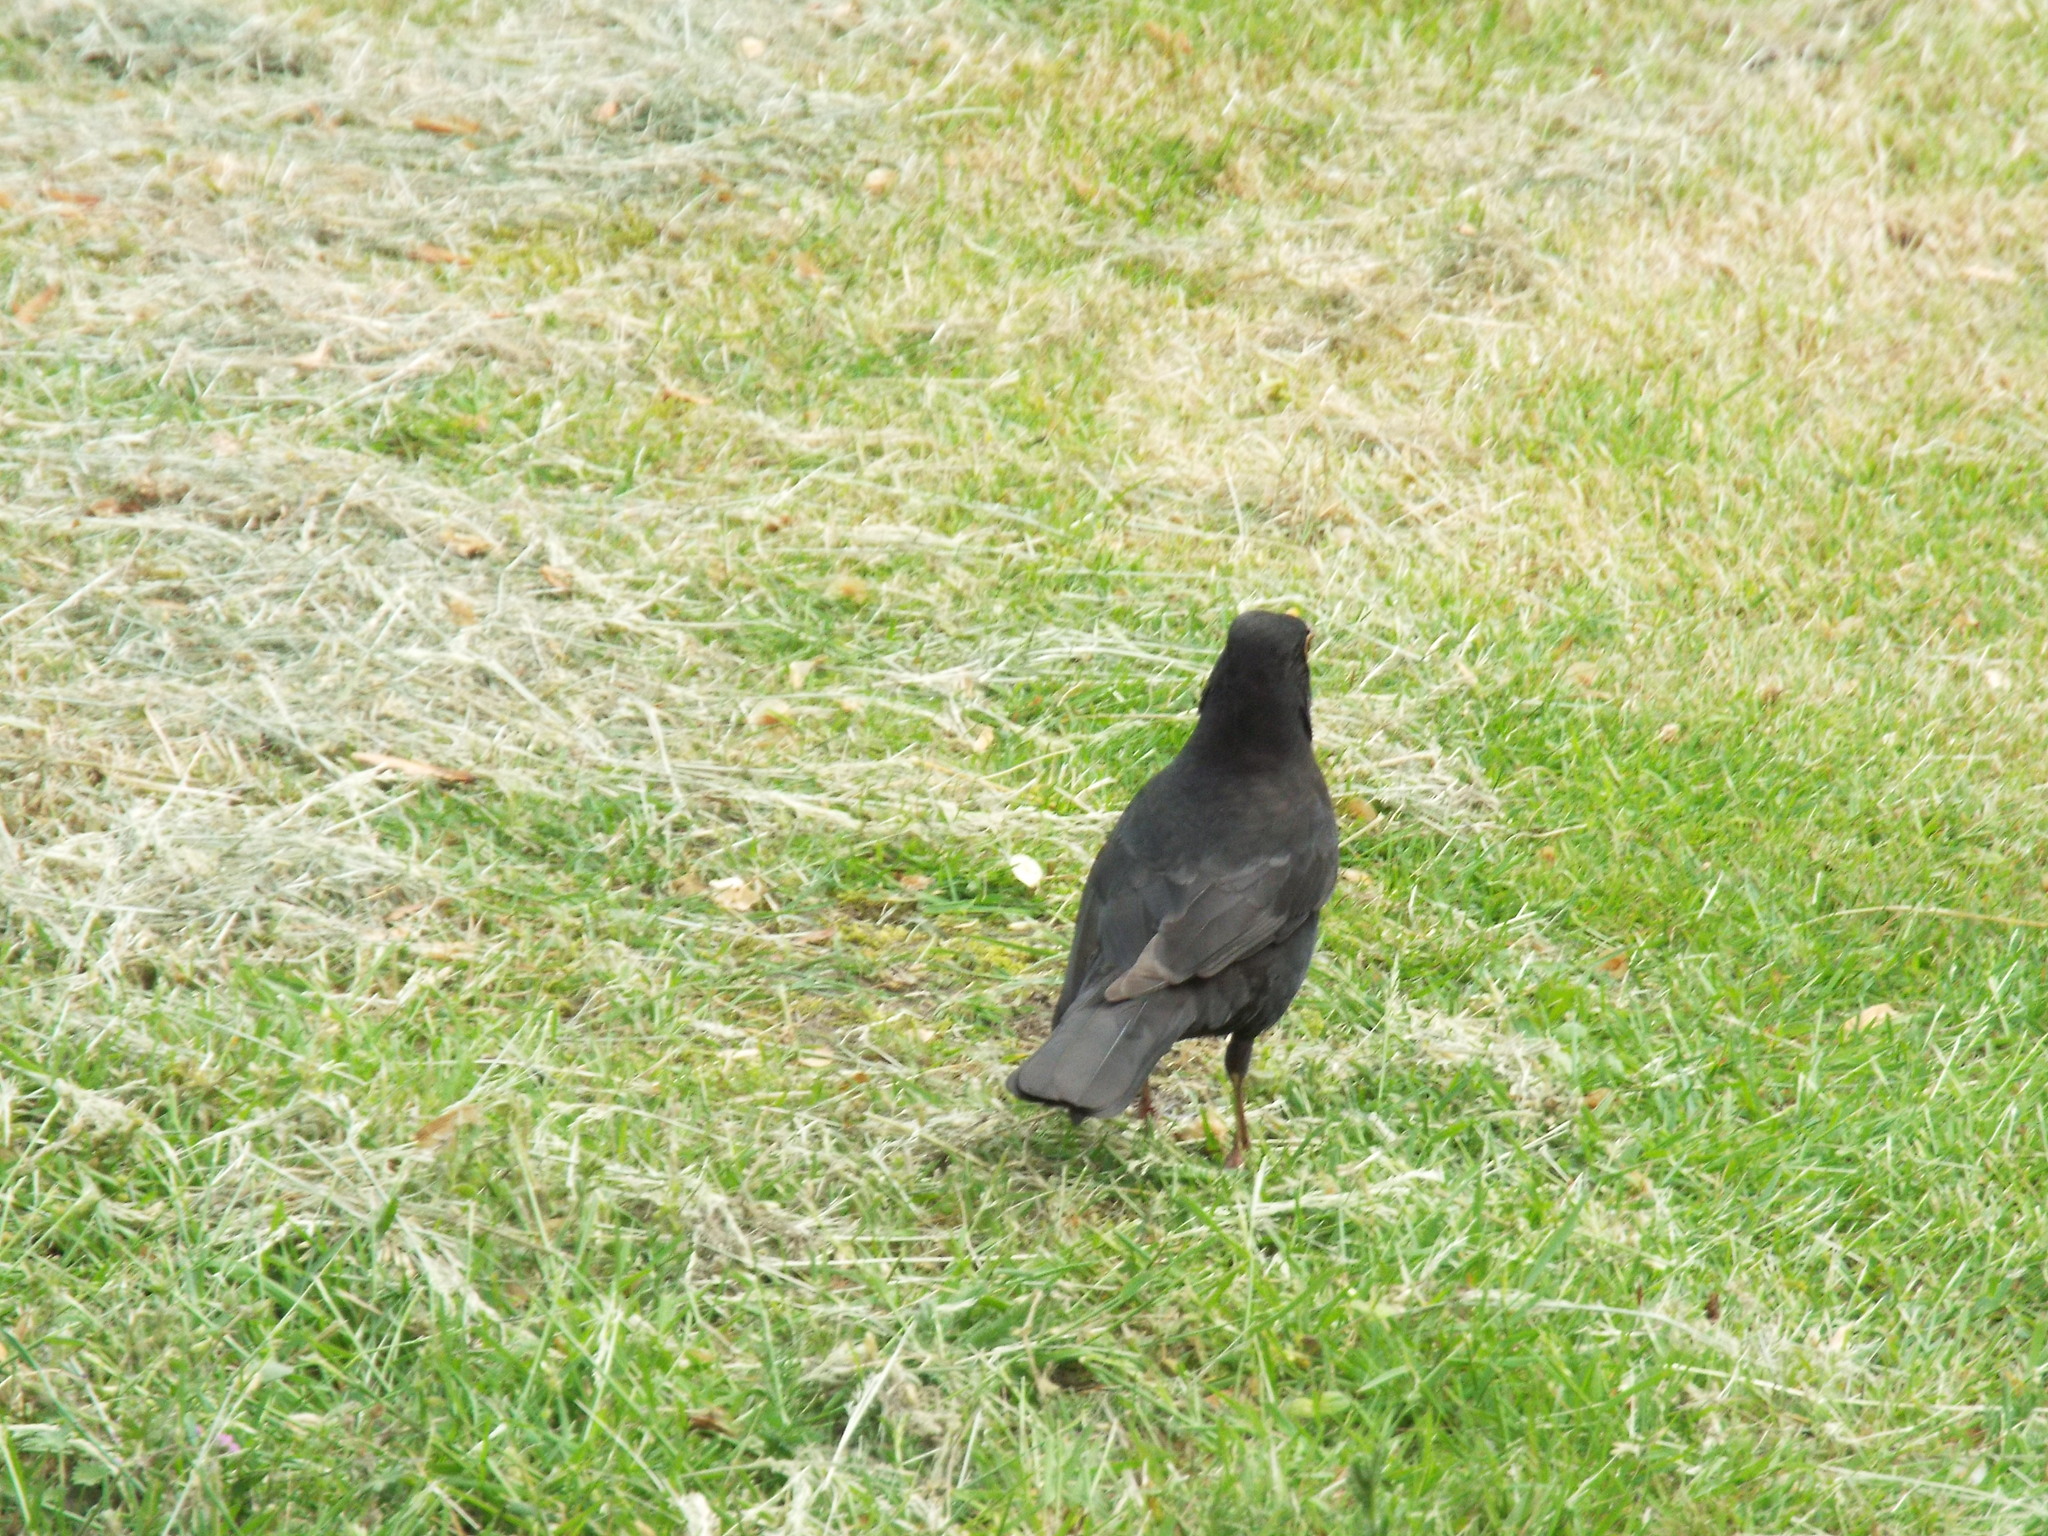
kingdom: Animalia
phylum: Chordata
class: Aves
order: Passeriformes
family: Turdidae
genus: Turdus
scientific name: Turdus merula
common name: Common blackbird
